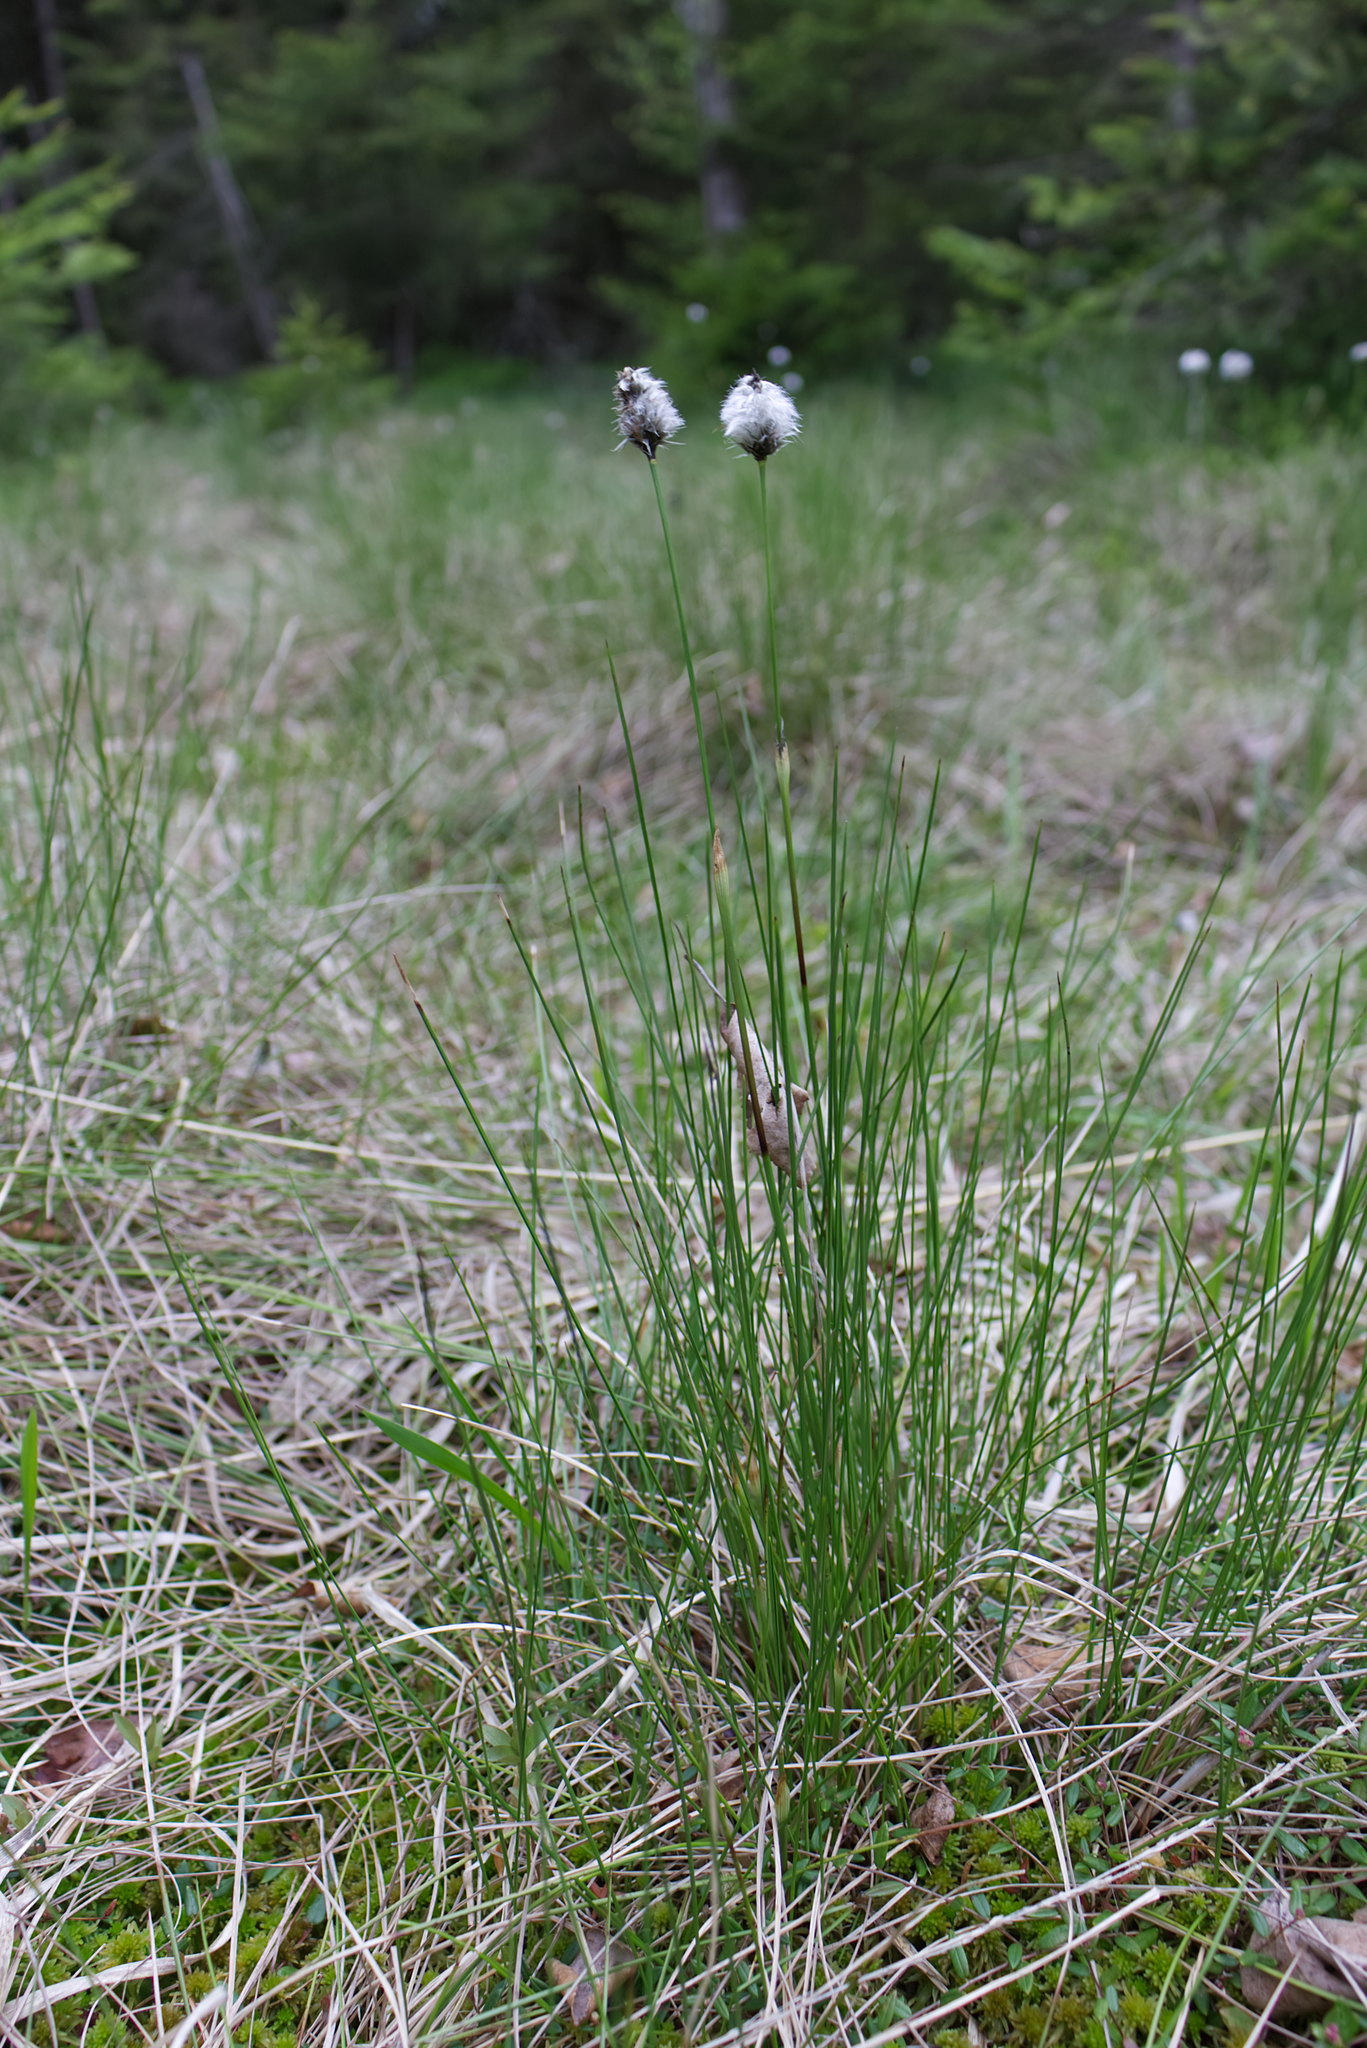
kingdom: Plantae
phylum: Tracheophyta
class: Liliopsida
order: Poales
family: Cyperaceae
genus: Eriophorum
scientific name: Eriophorum vaginatum
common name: Hare's-tail cottongrass
